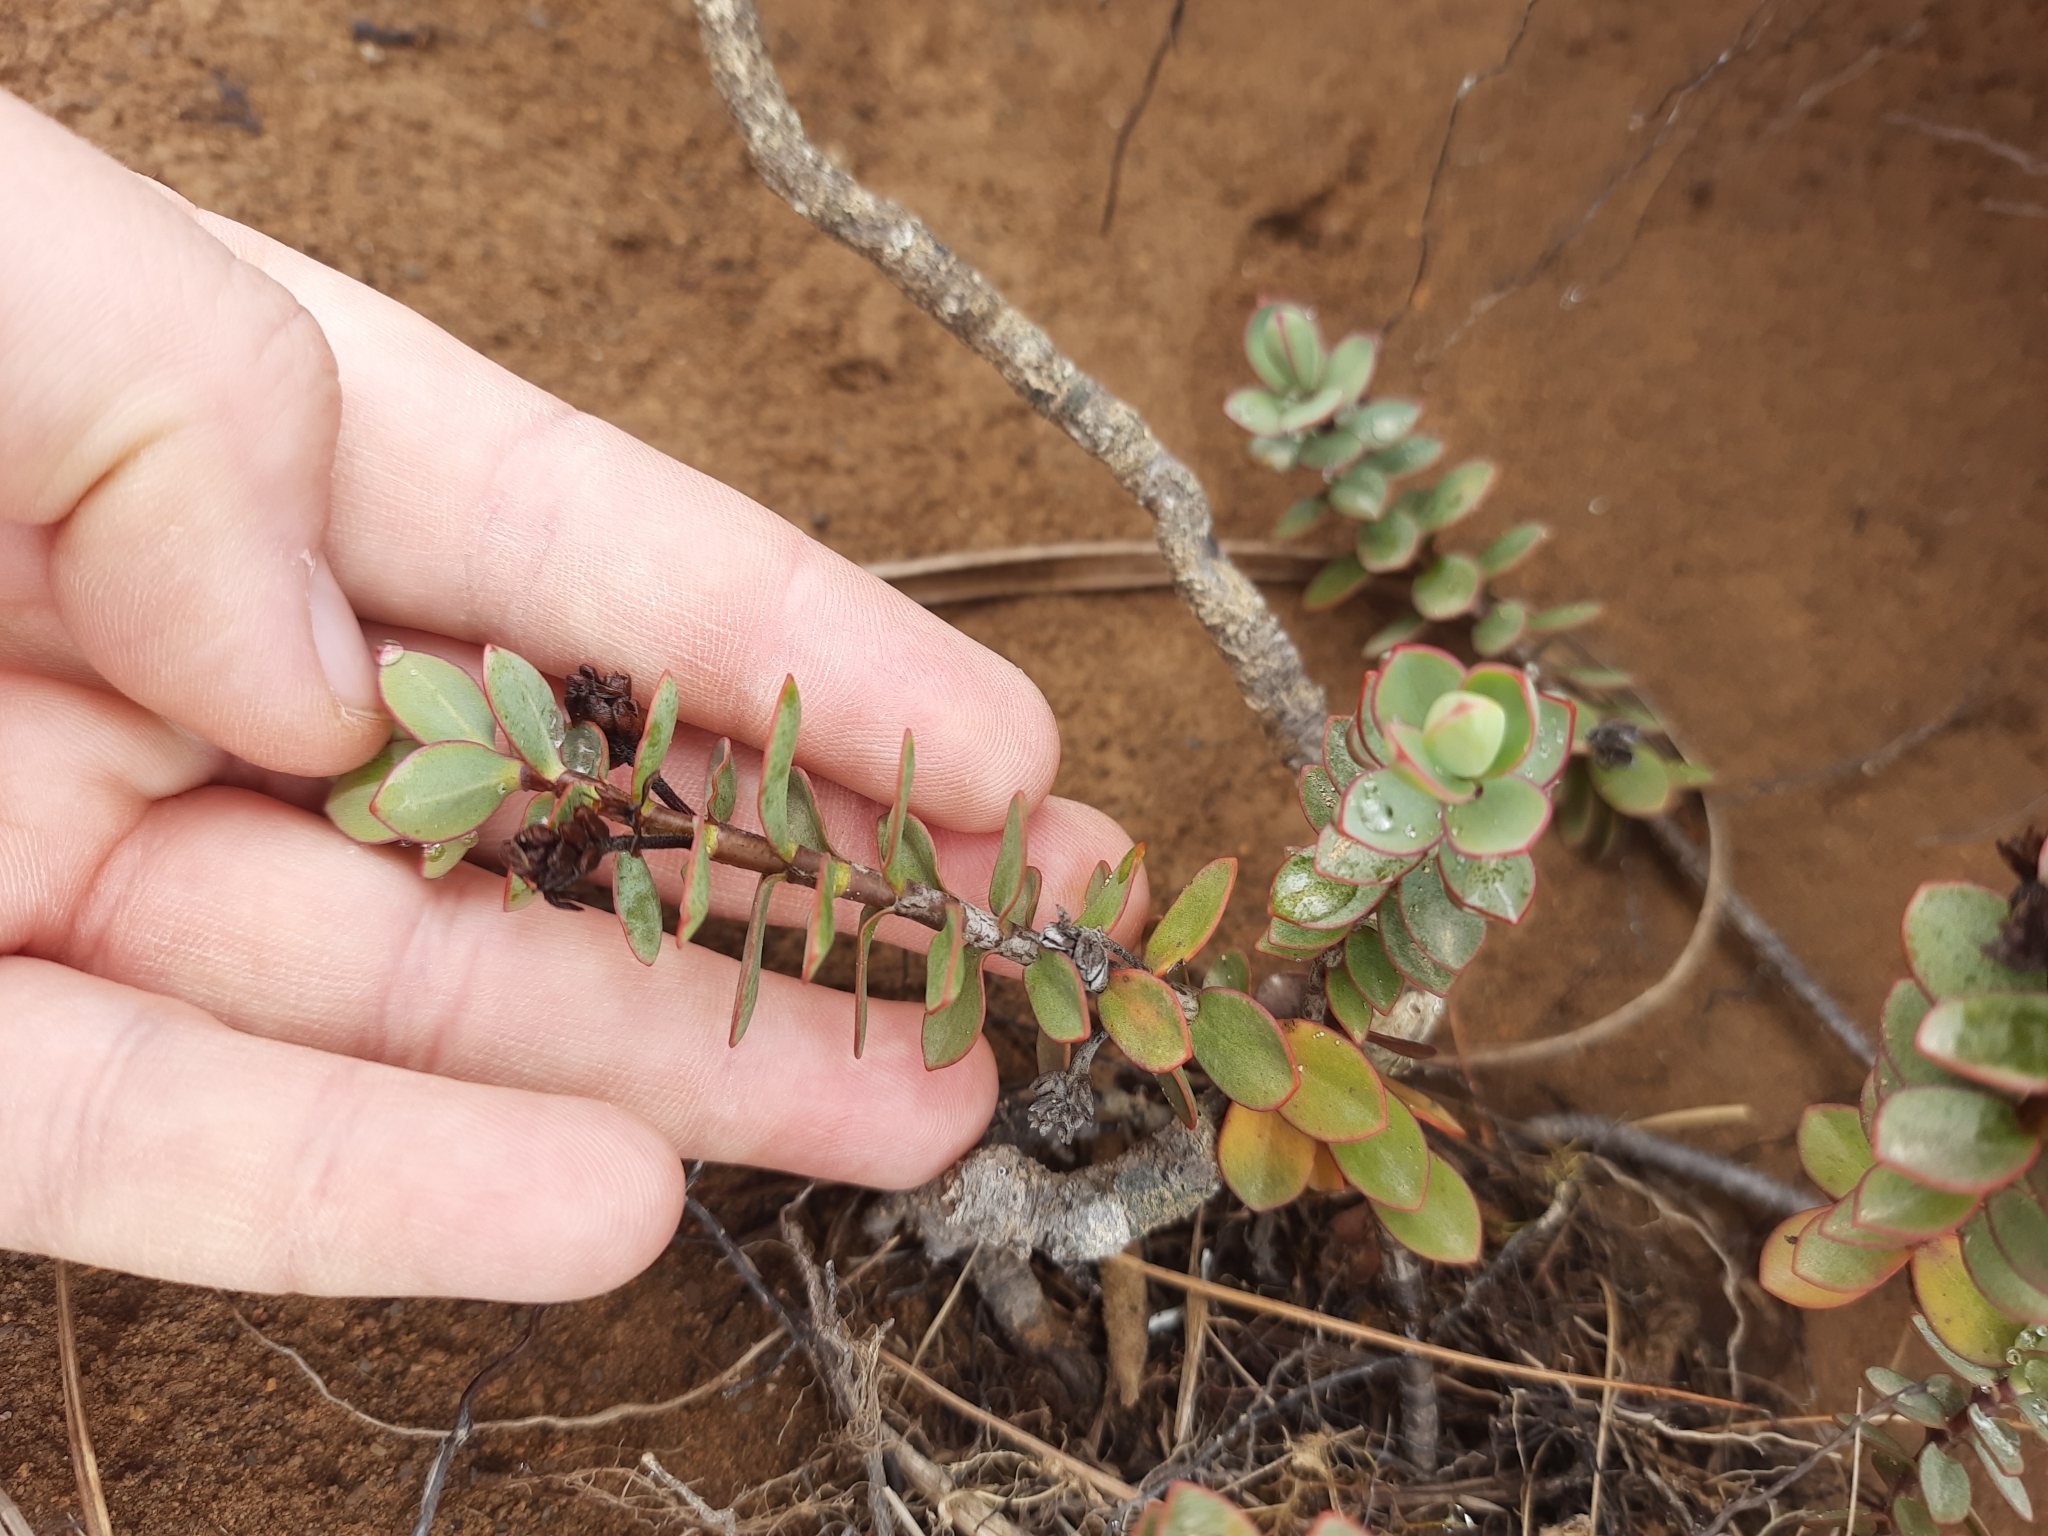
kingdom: Plantae
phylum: Tracheophyta
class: Magnoliopsida
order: Lamiales
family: Plantaginaceae
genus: Veronica
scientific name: Veronica pinguifolia
